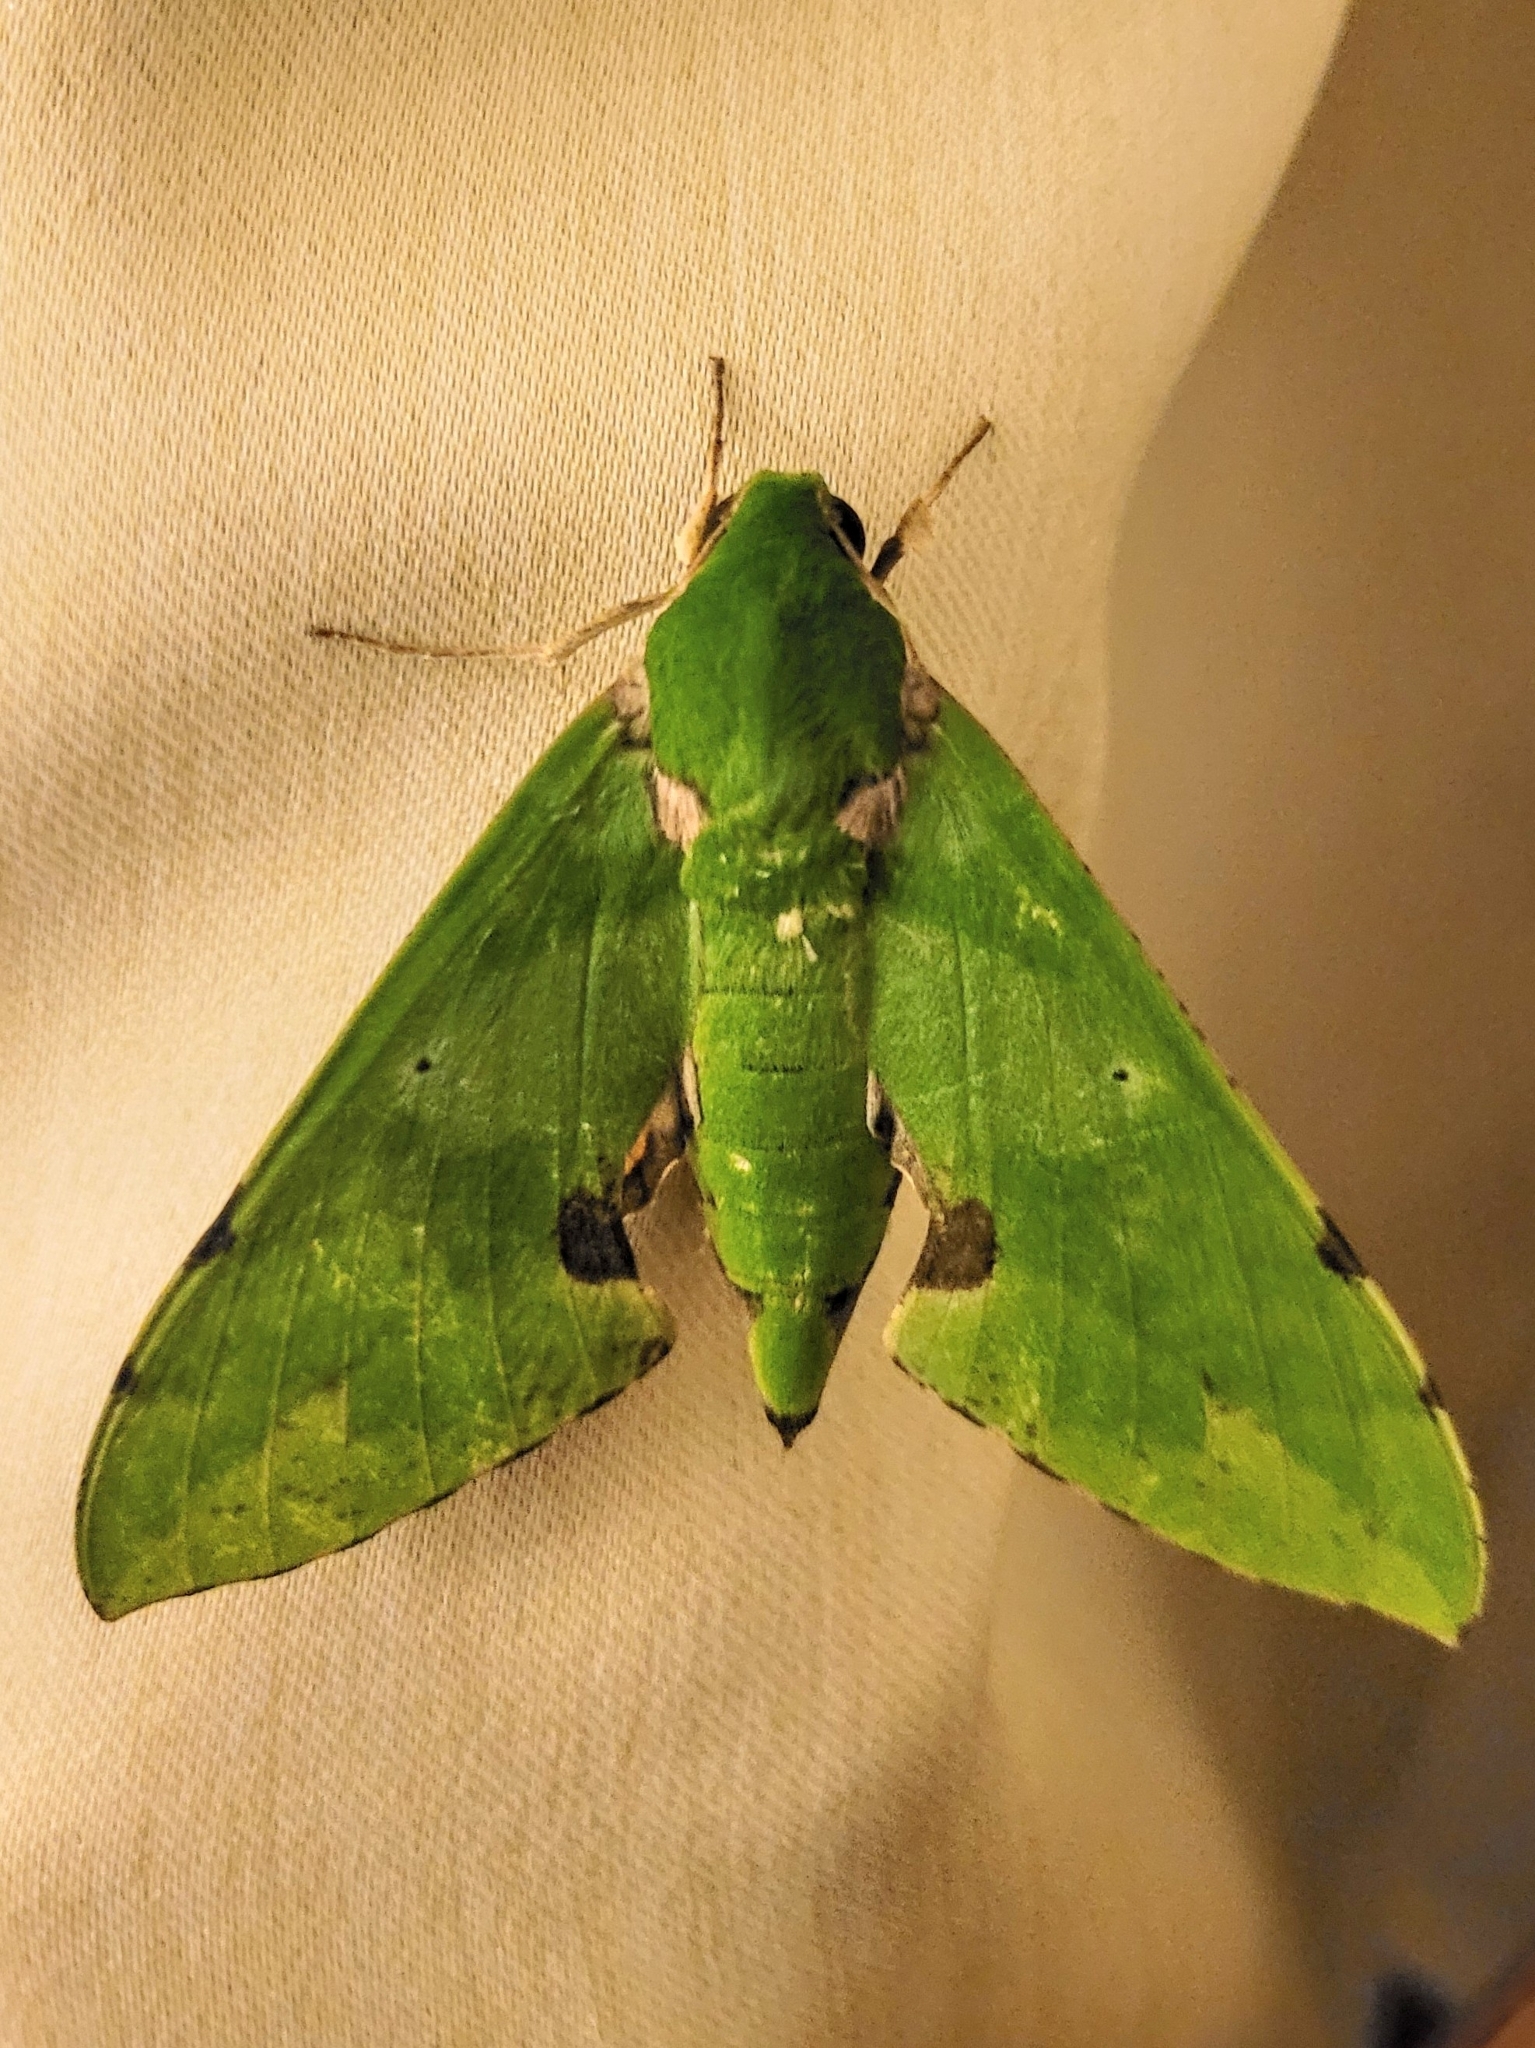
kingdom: Animalia
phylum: Arthropoda
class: Insecta
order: Lepidoptera
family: Sphingidae
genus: Euchloron
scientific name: Euchloron megaera
